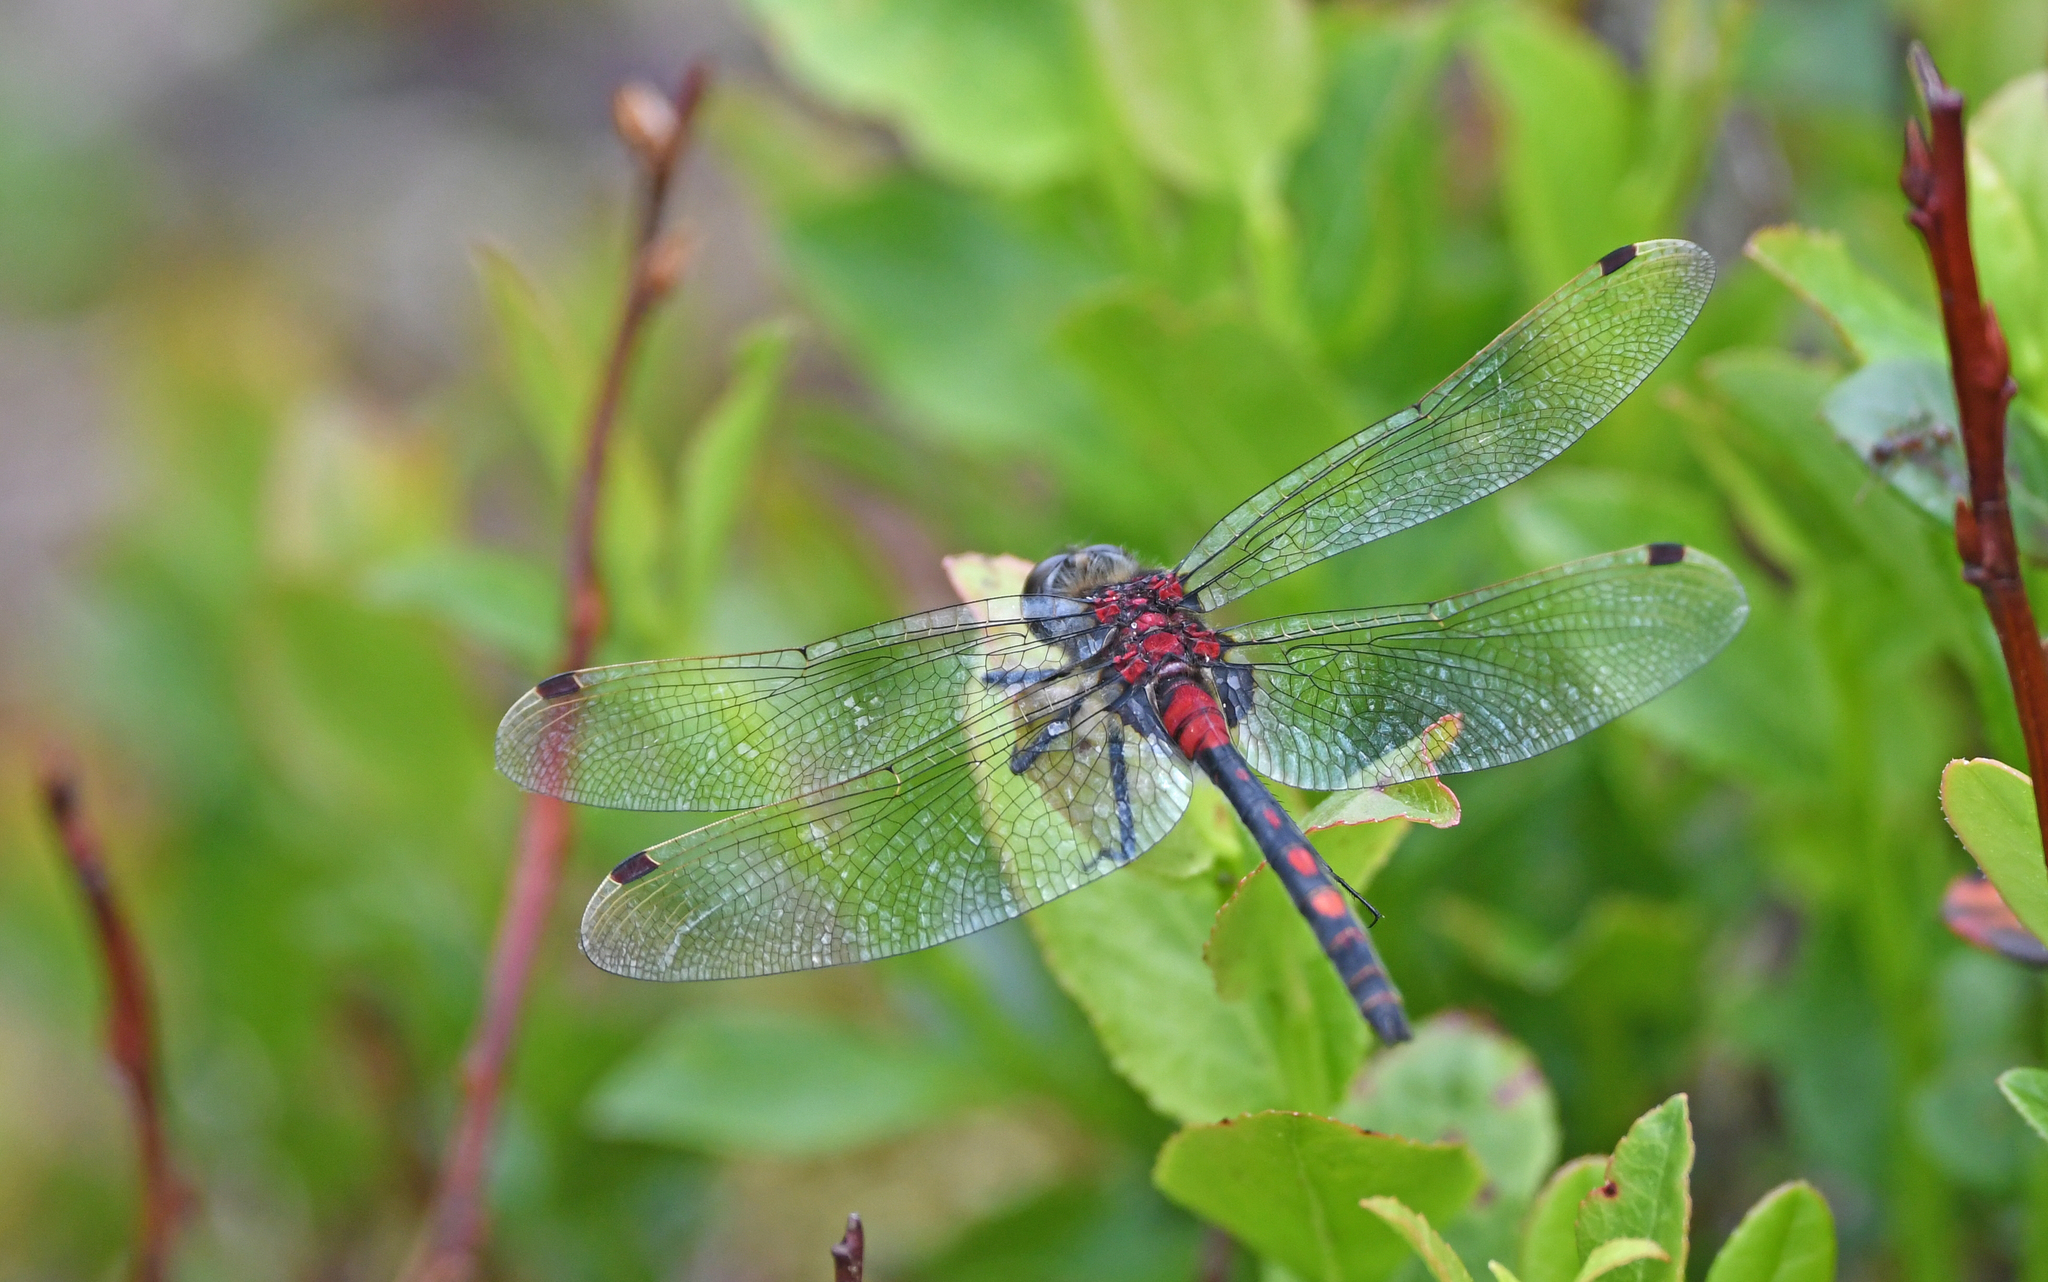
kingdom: Animalia
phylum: Arthropoda
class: Insecta
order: Odonata
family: Libellulidae
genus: Leucorrhinia
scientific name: Leucorrhinia dubia
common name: White-faced darter
